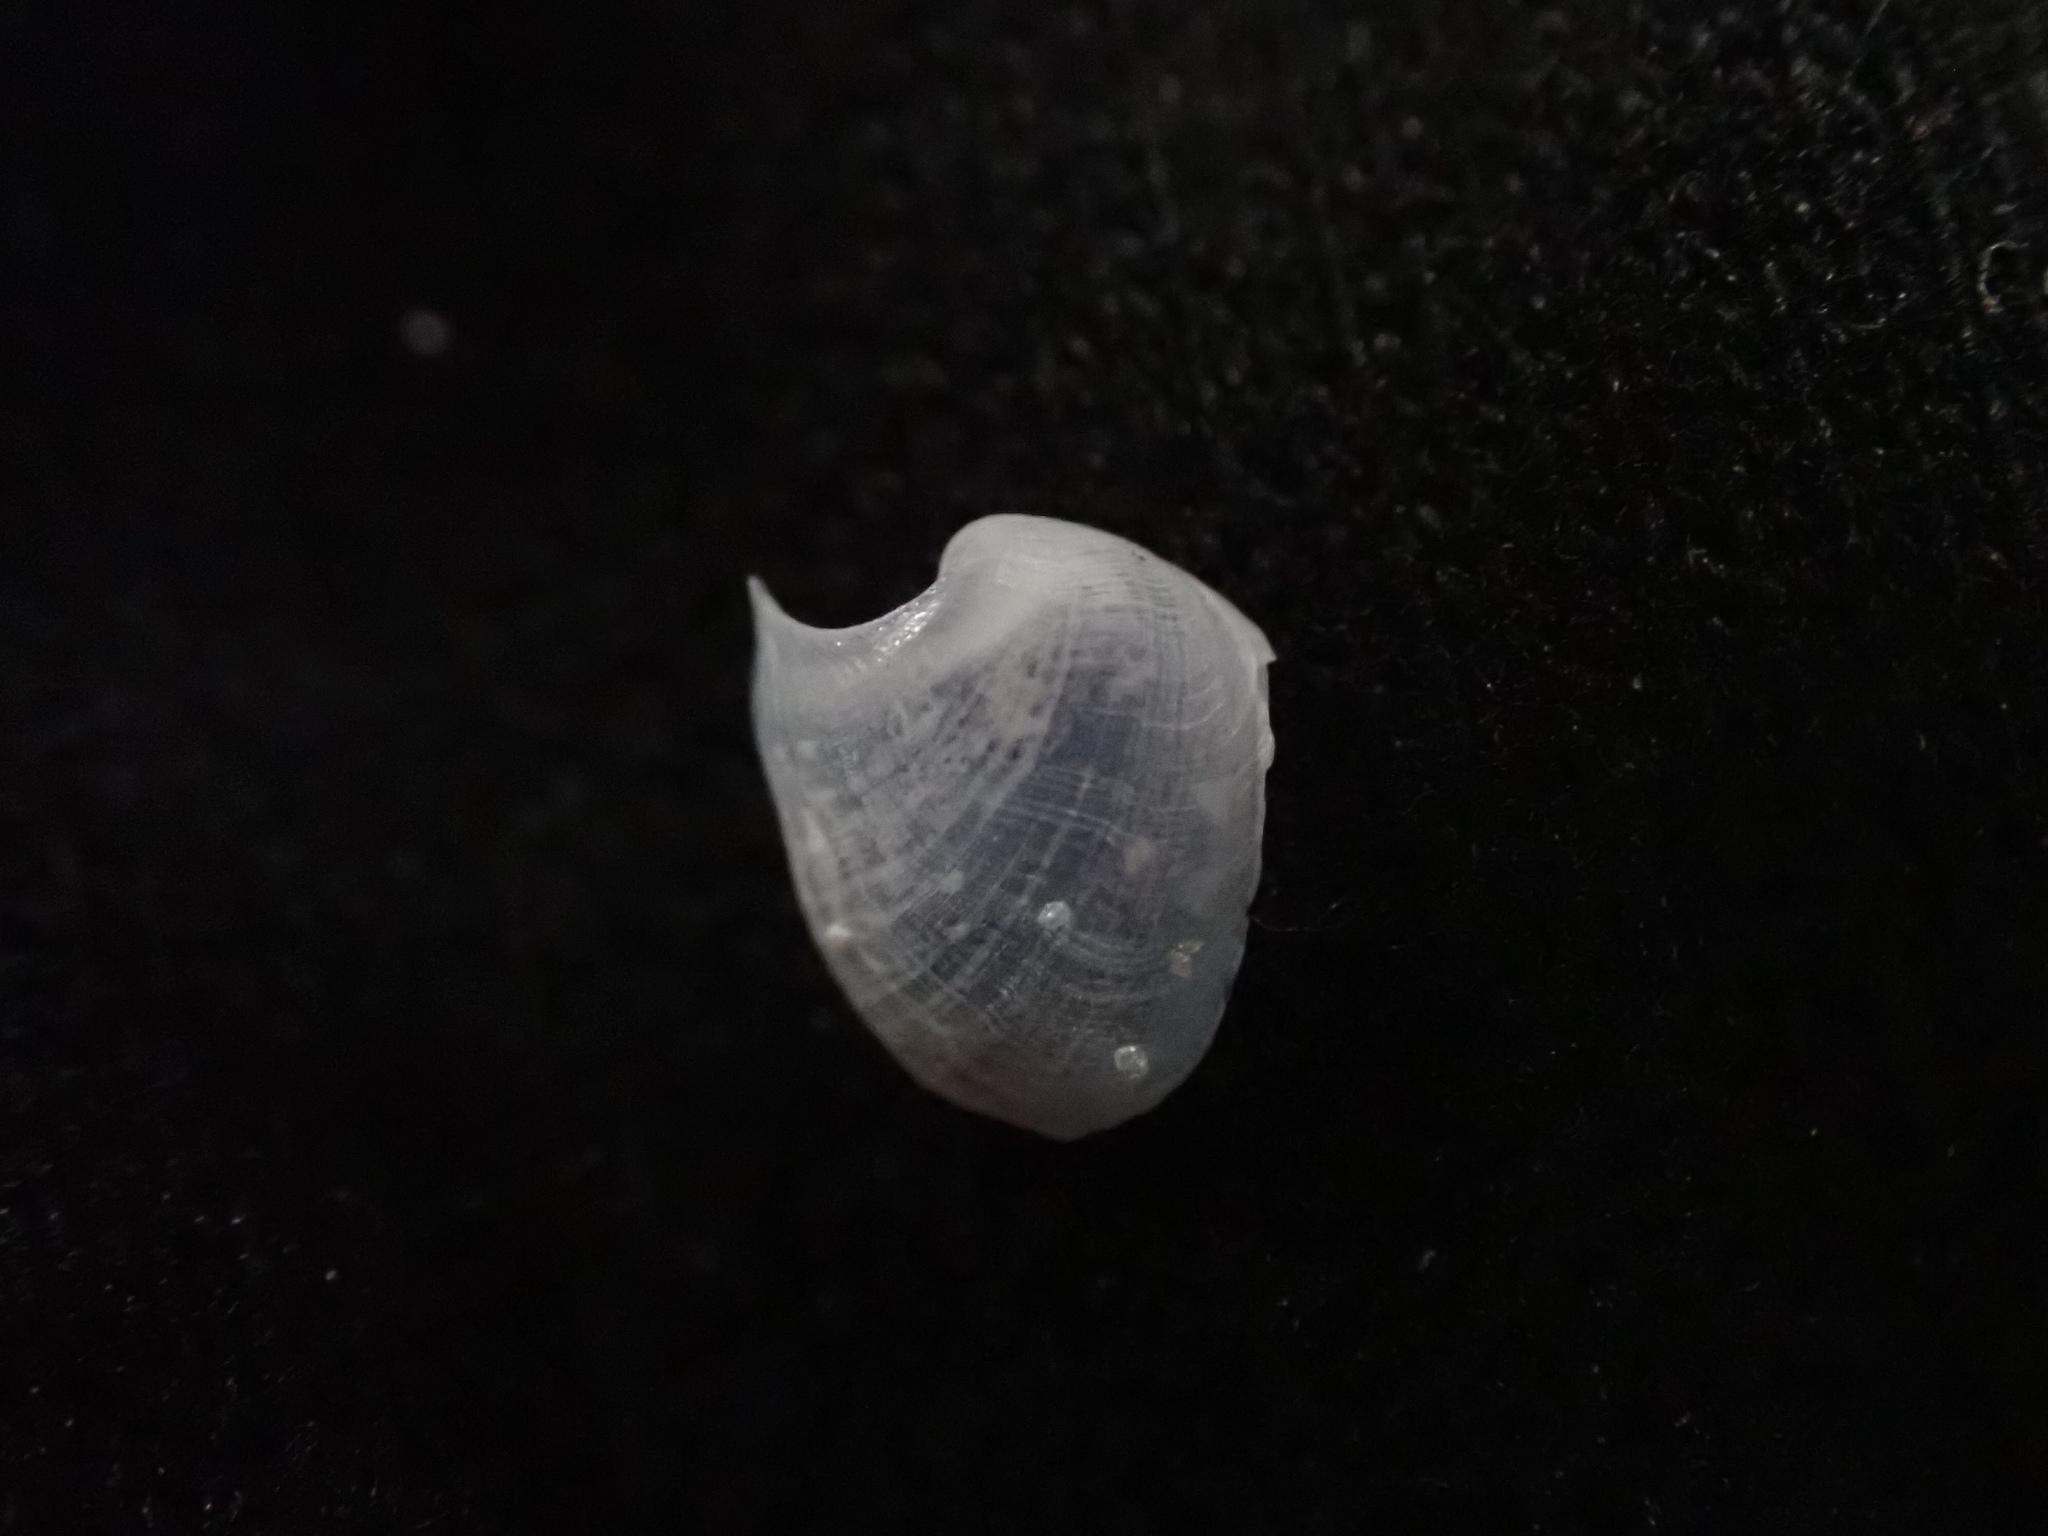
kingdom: Animalia
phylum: Mollusca
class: Gastropoda
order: Cephalaspidea
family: Aglajidae
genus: Melanochlamys
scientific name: Melanochlamys cylindrica
